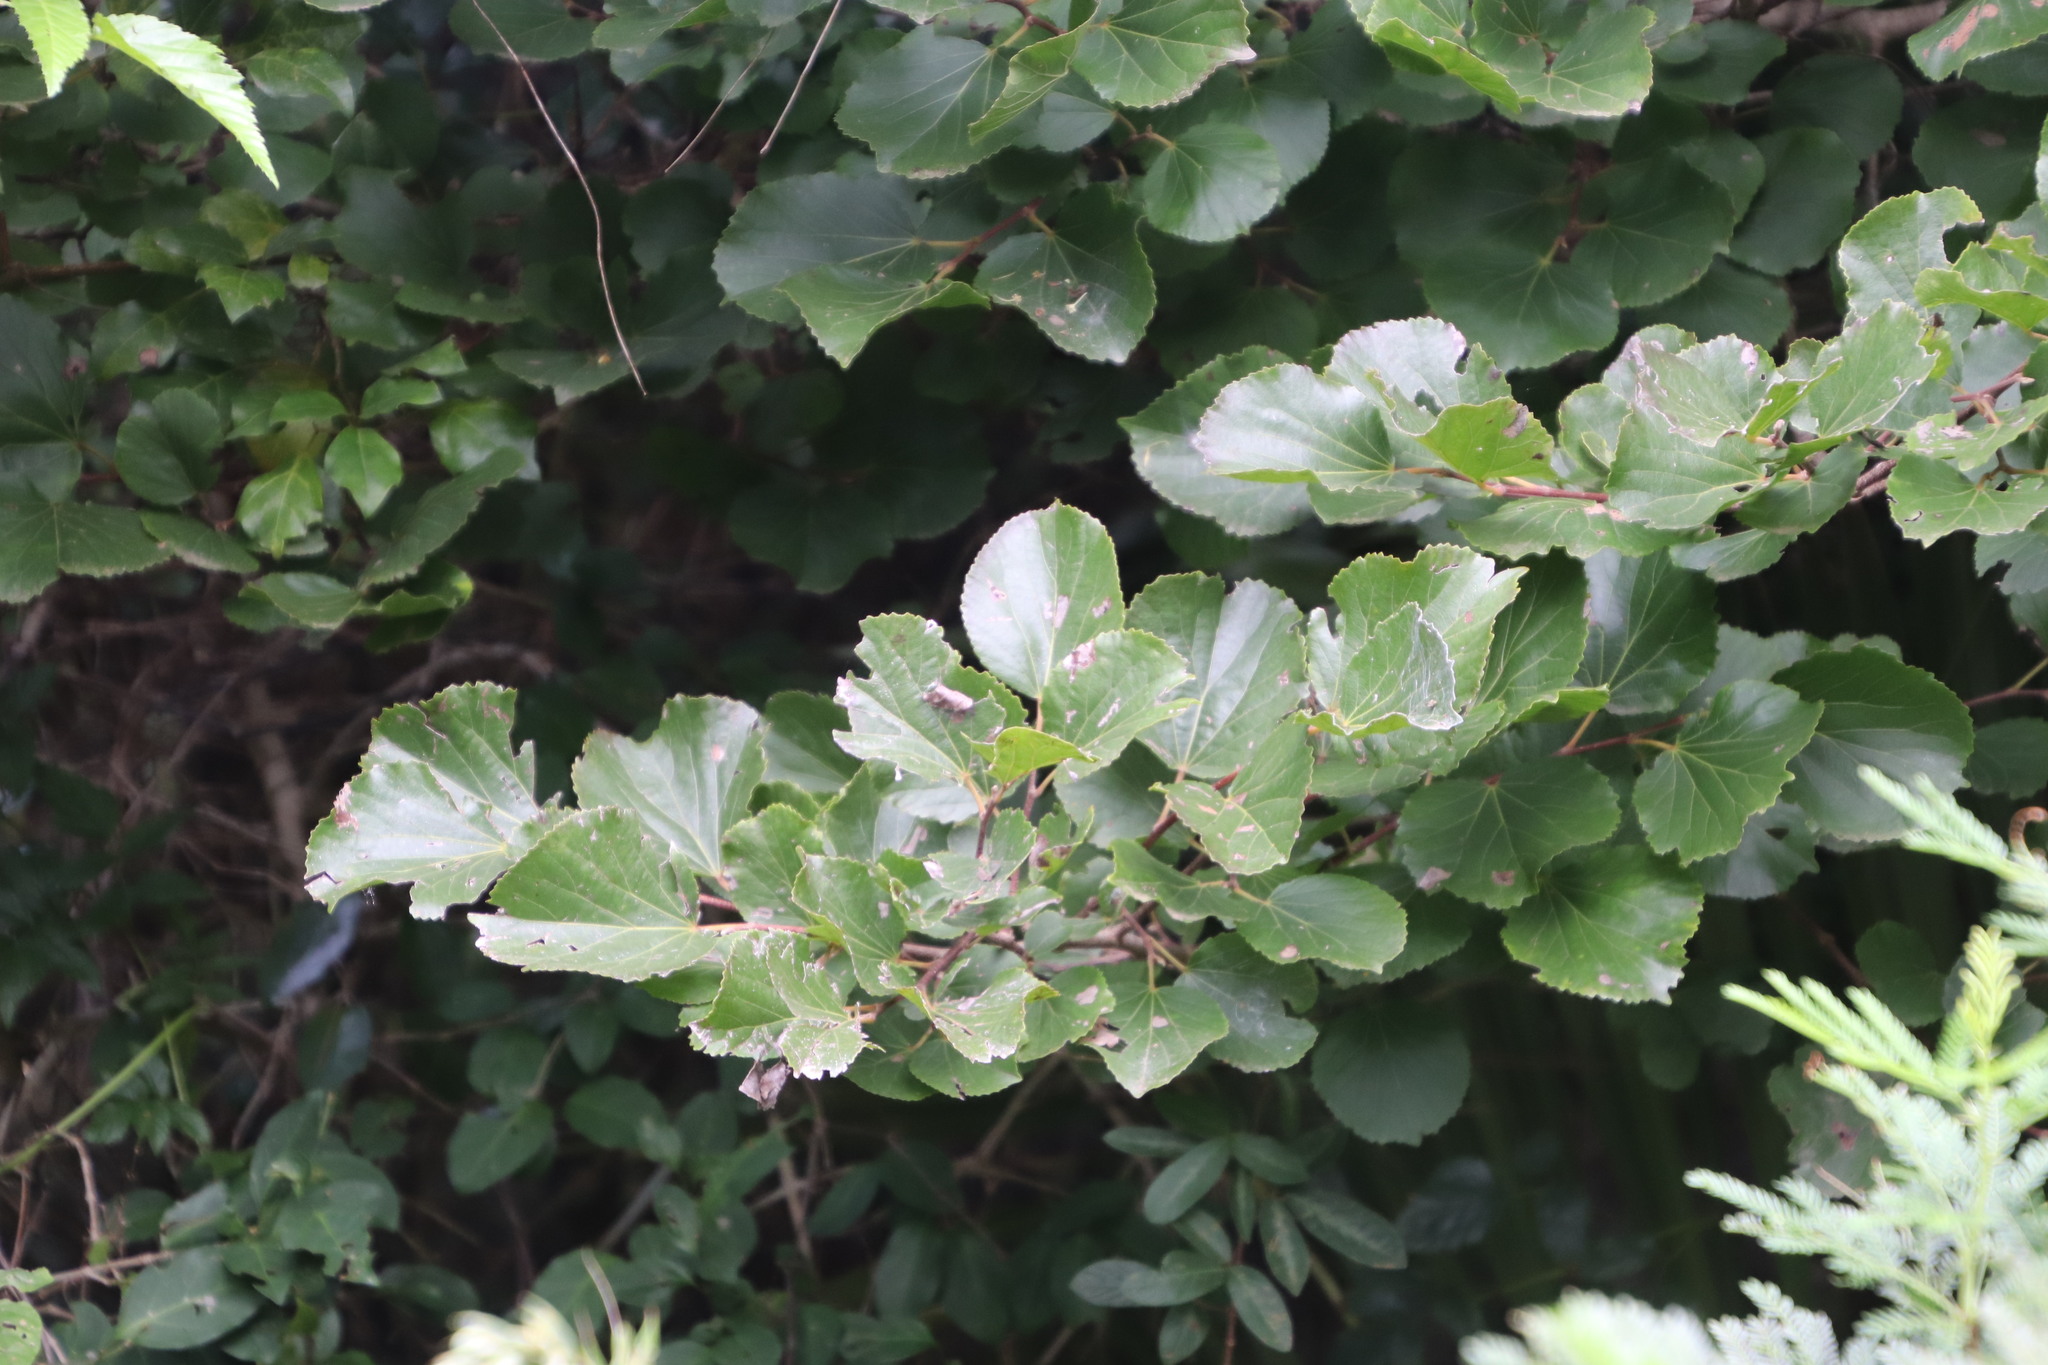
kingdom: Plantae
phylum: Tracheophyta
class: Magnoliopsida
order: Malpighiales
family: Salicaceae
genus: Trimeria
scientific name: Trimeria grandifolia
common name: Wild mulberry
